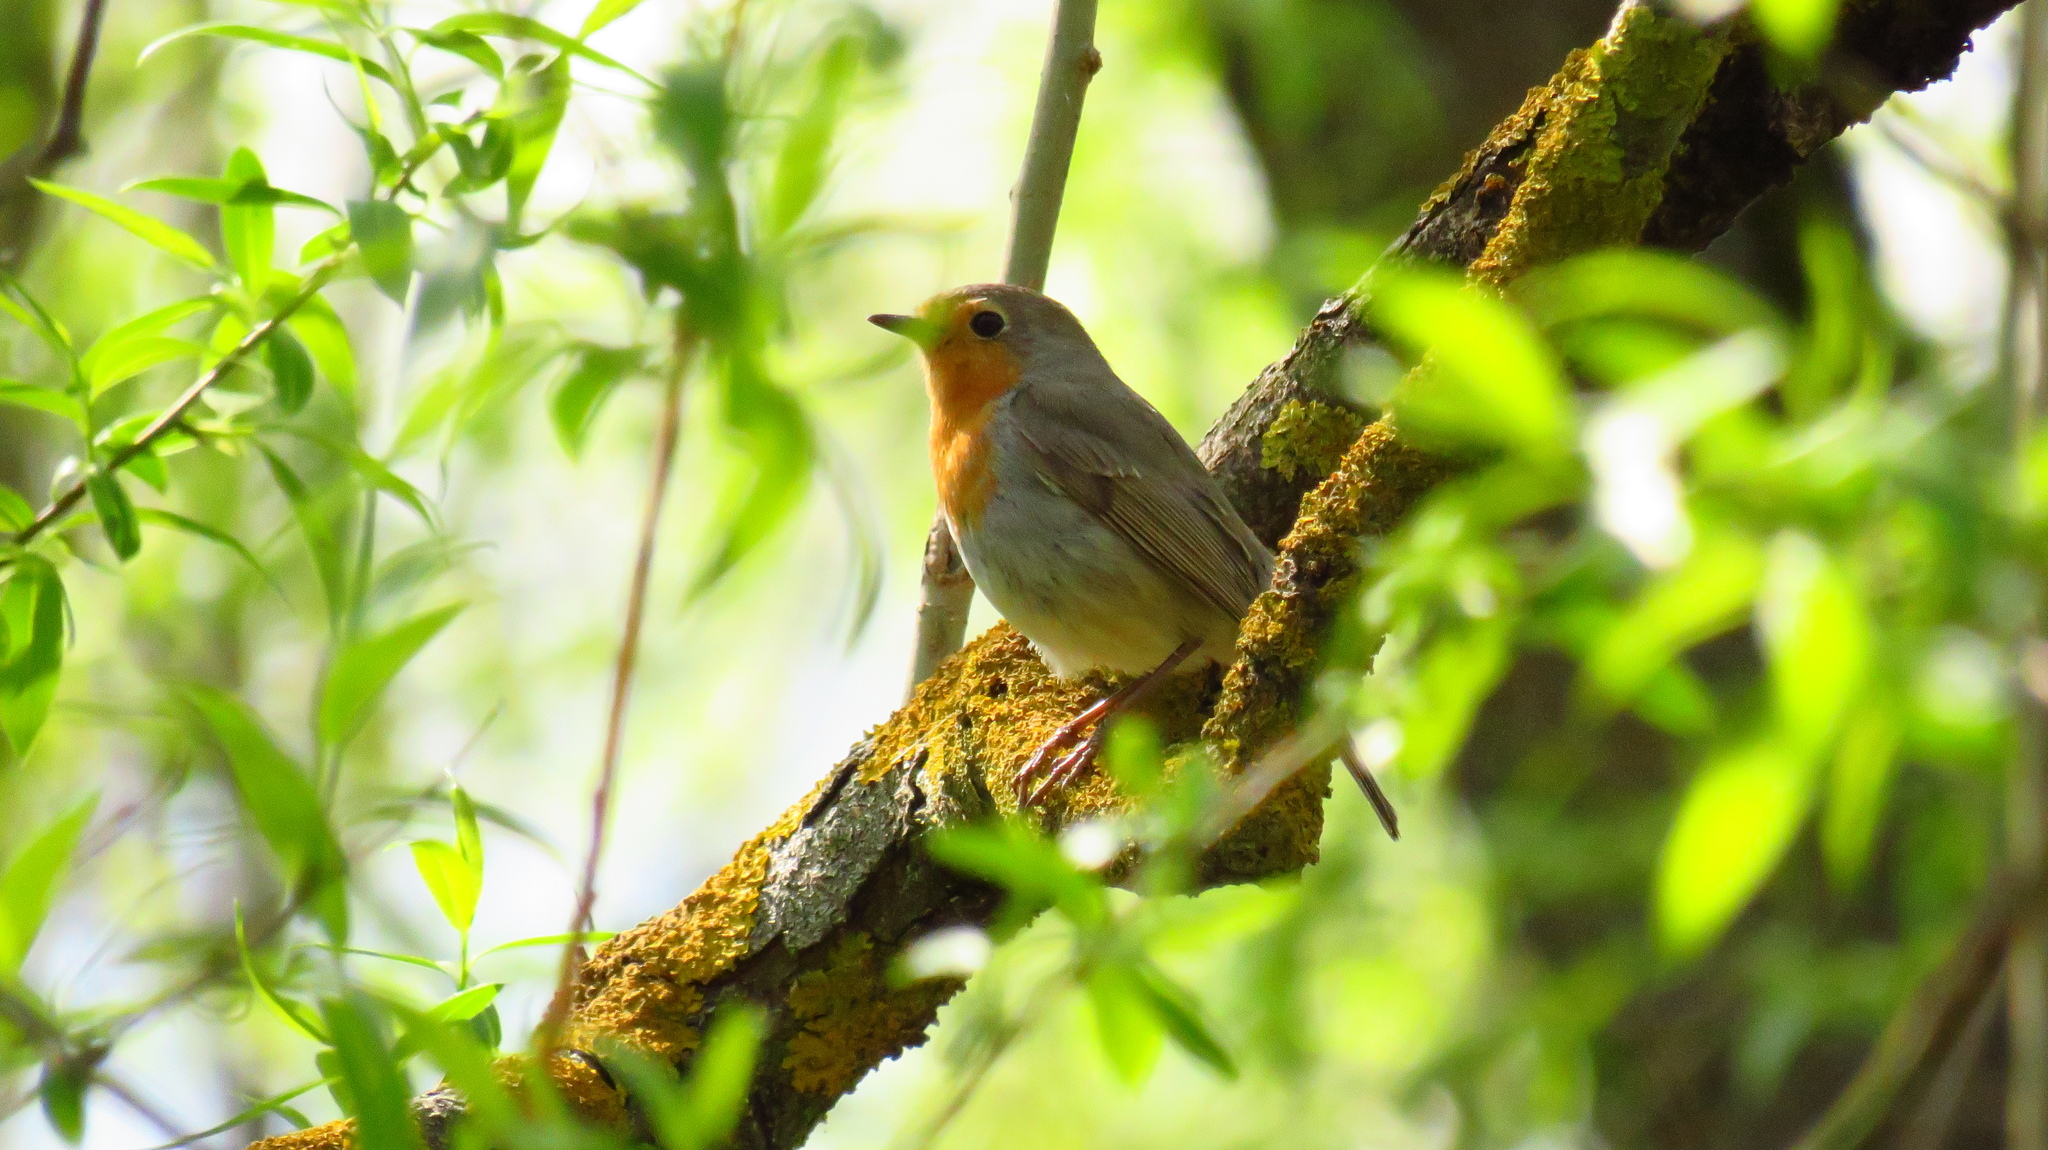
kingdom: Animalia
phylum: Chordata
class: Aves
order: Passeriformes
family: Muscicapidae
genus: Erithacus
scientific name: Erithacus rubecula
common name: European robin
